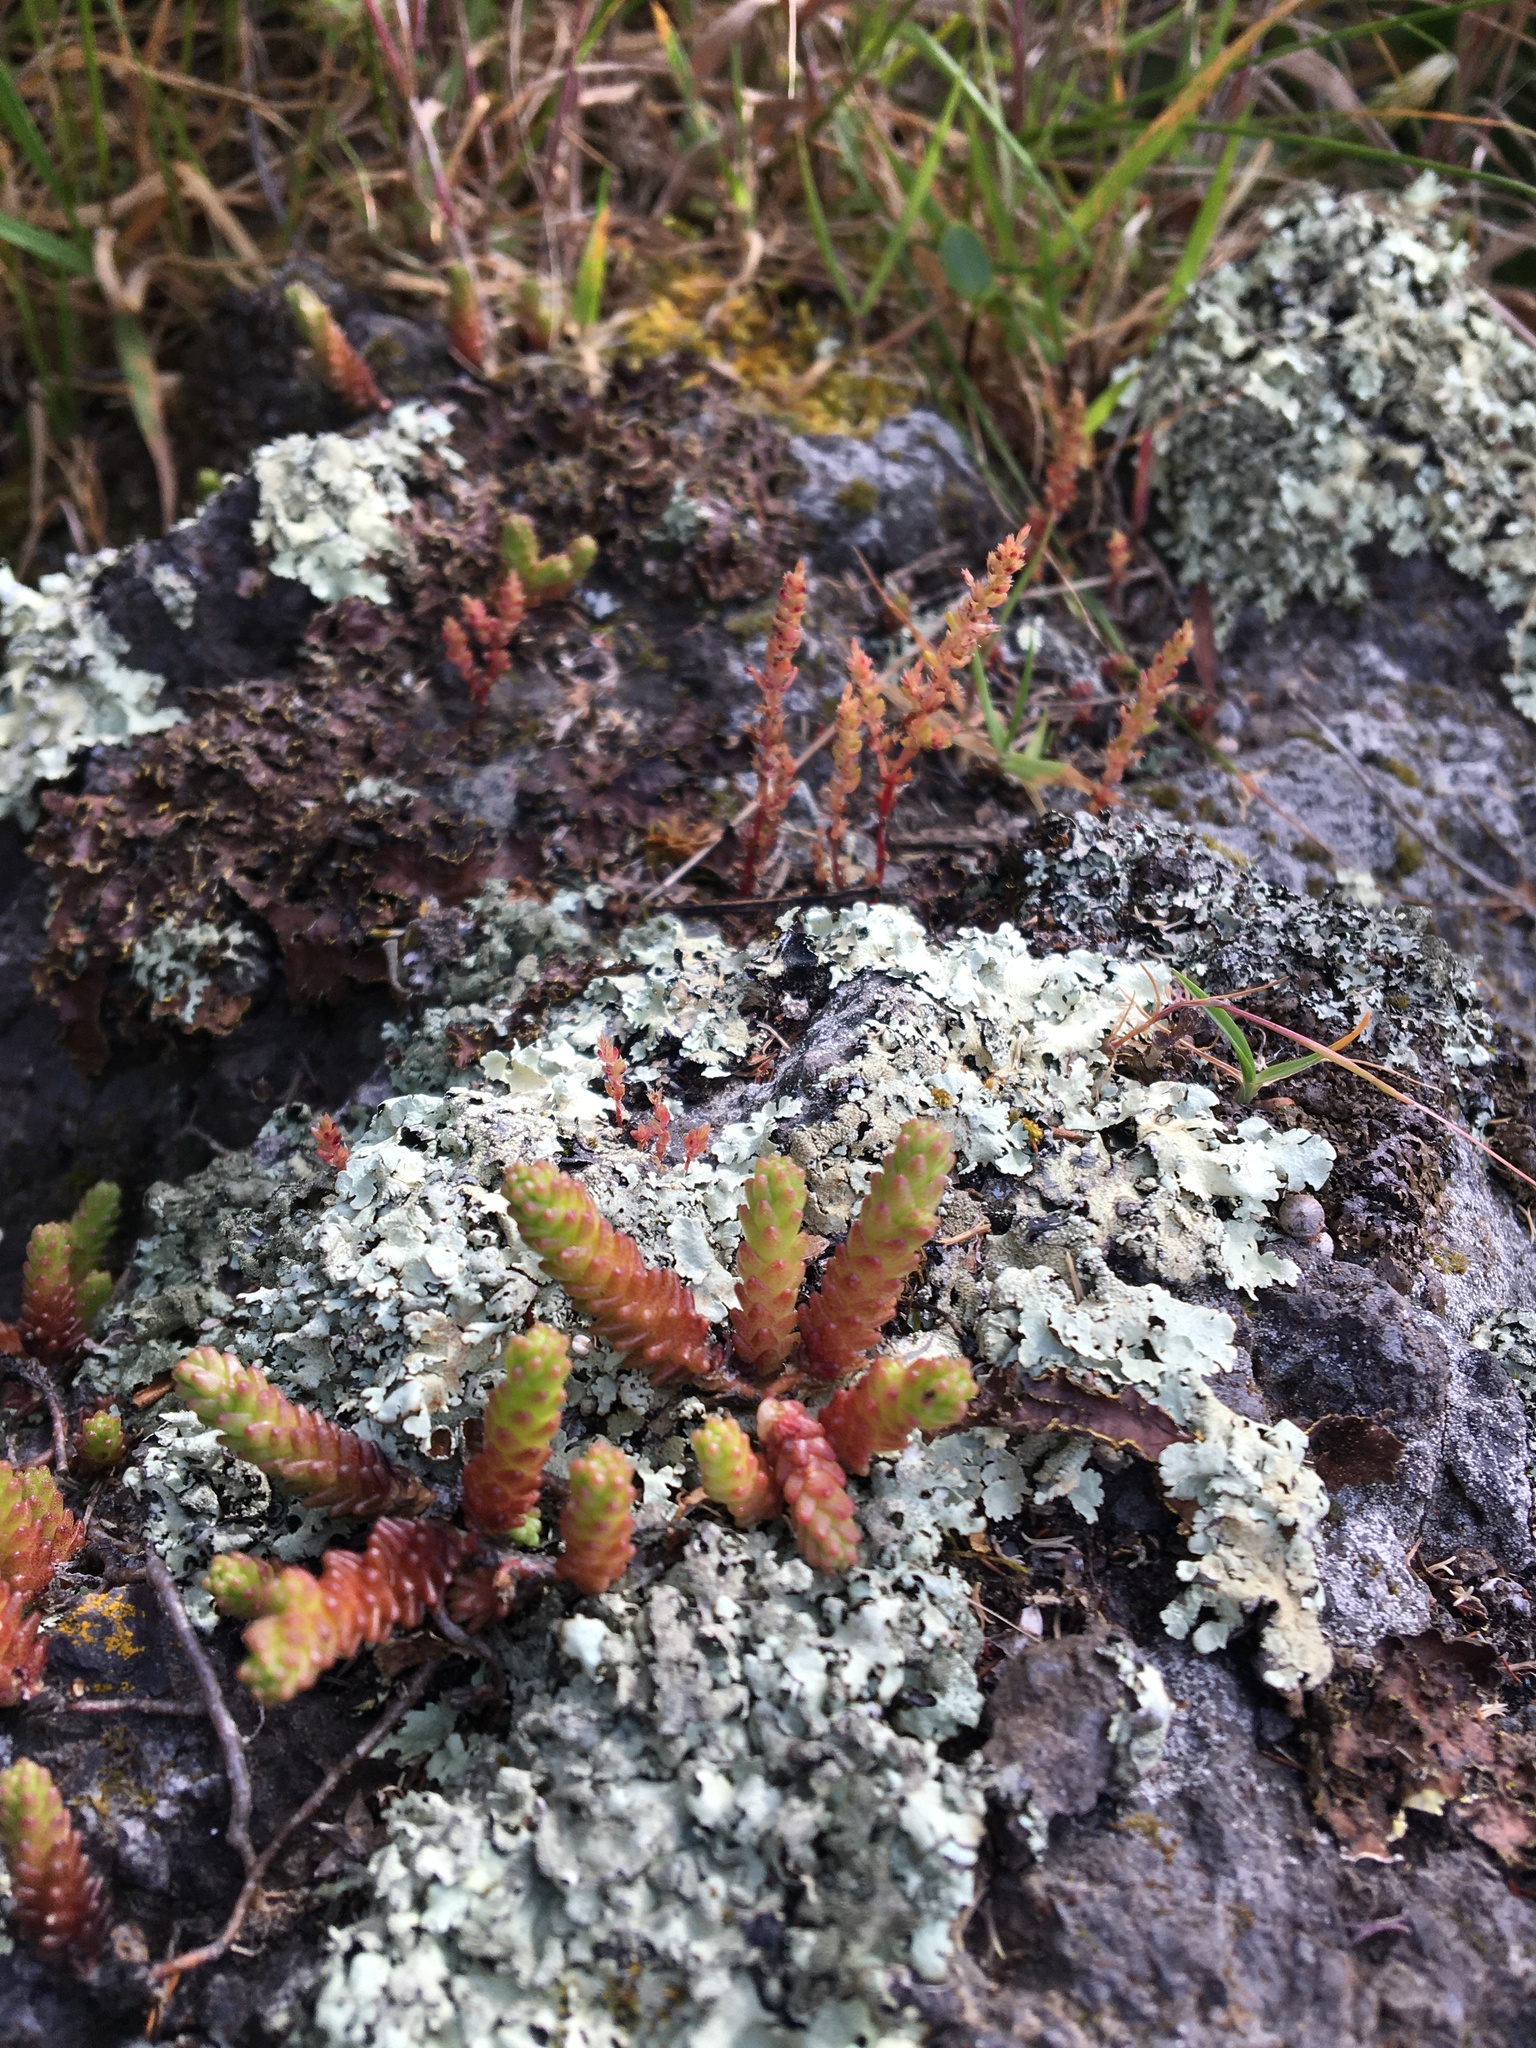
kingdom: Plantae
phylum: Tracheophyta
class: Magnoliopsida
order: Saxifragales
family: Crassulaceae
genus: Sedum
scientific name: Sedum acre
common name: Biting stonecrop
